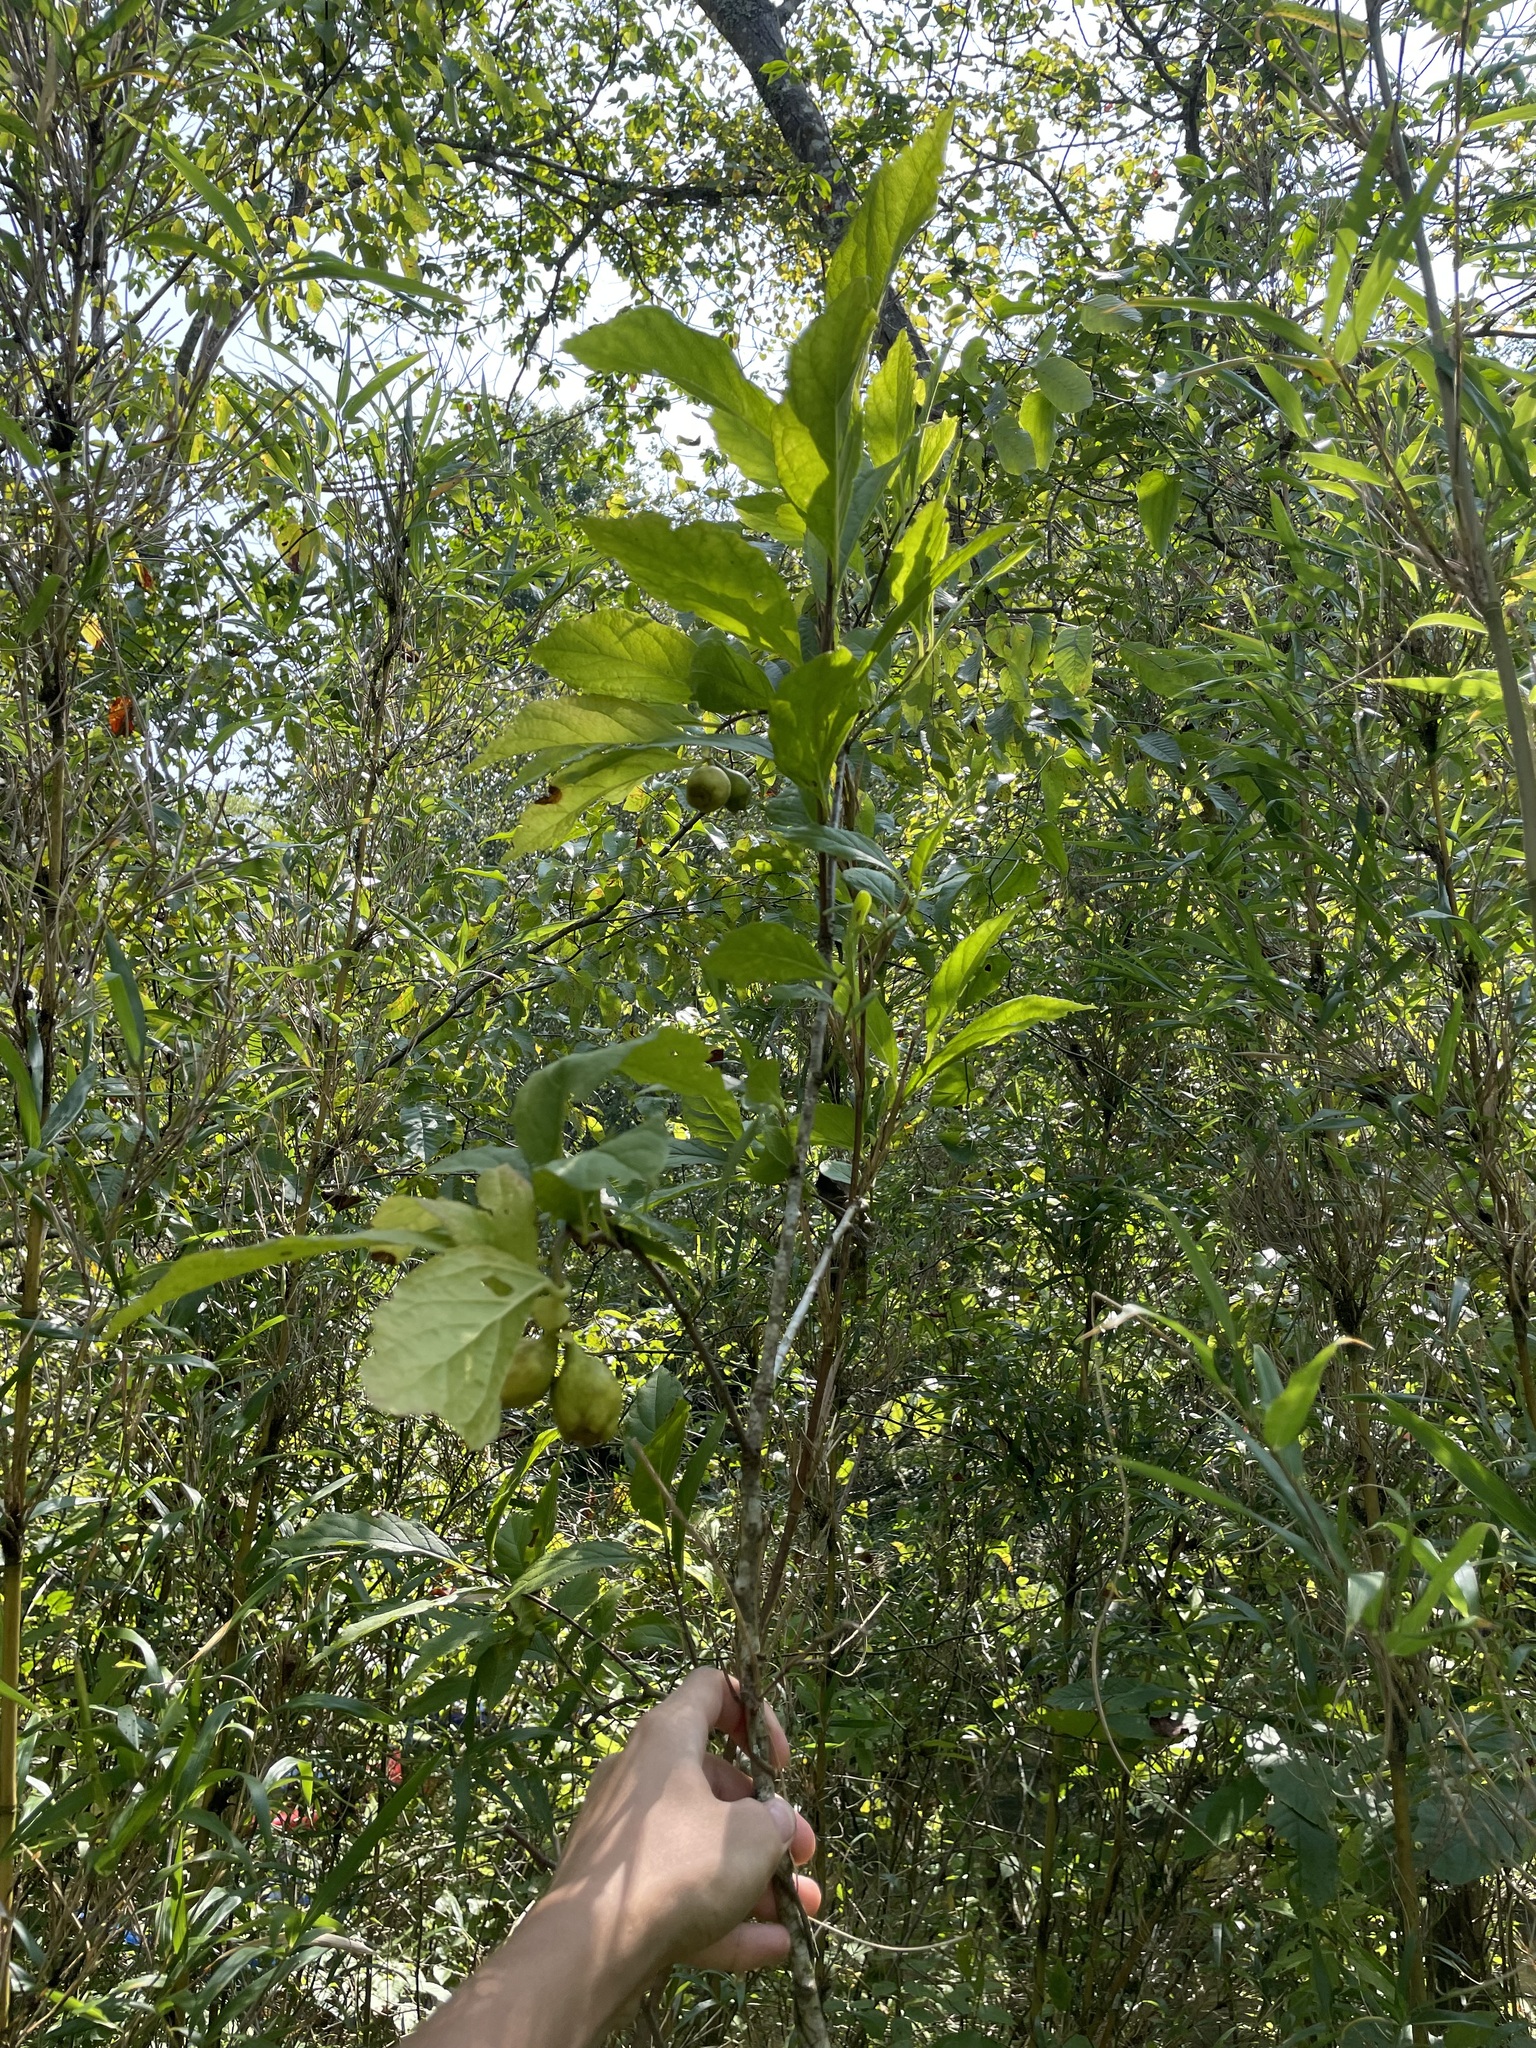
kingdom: Plantae
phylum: Tracheophyta
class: Magnoliopsida
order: Santalales
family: Cervantesiaceae
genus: Pyrularia
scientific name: Pyrularia pubera
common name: Oilnut
